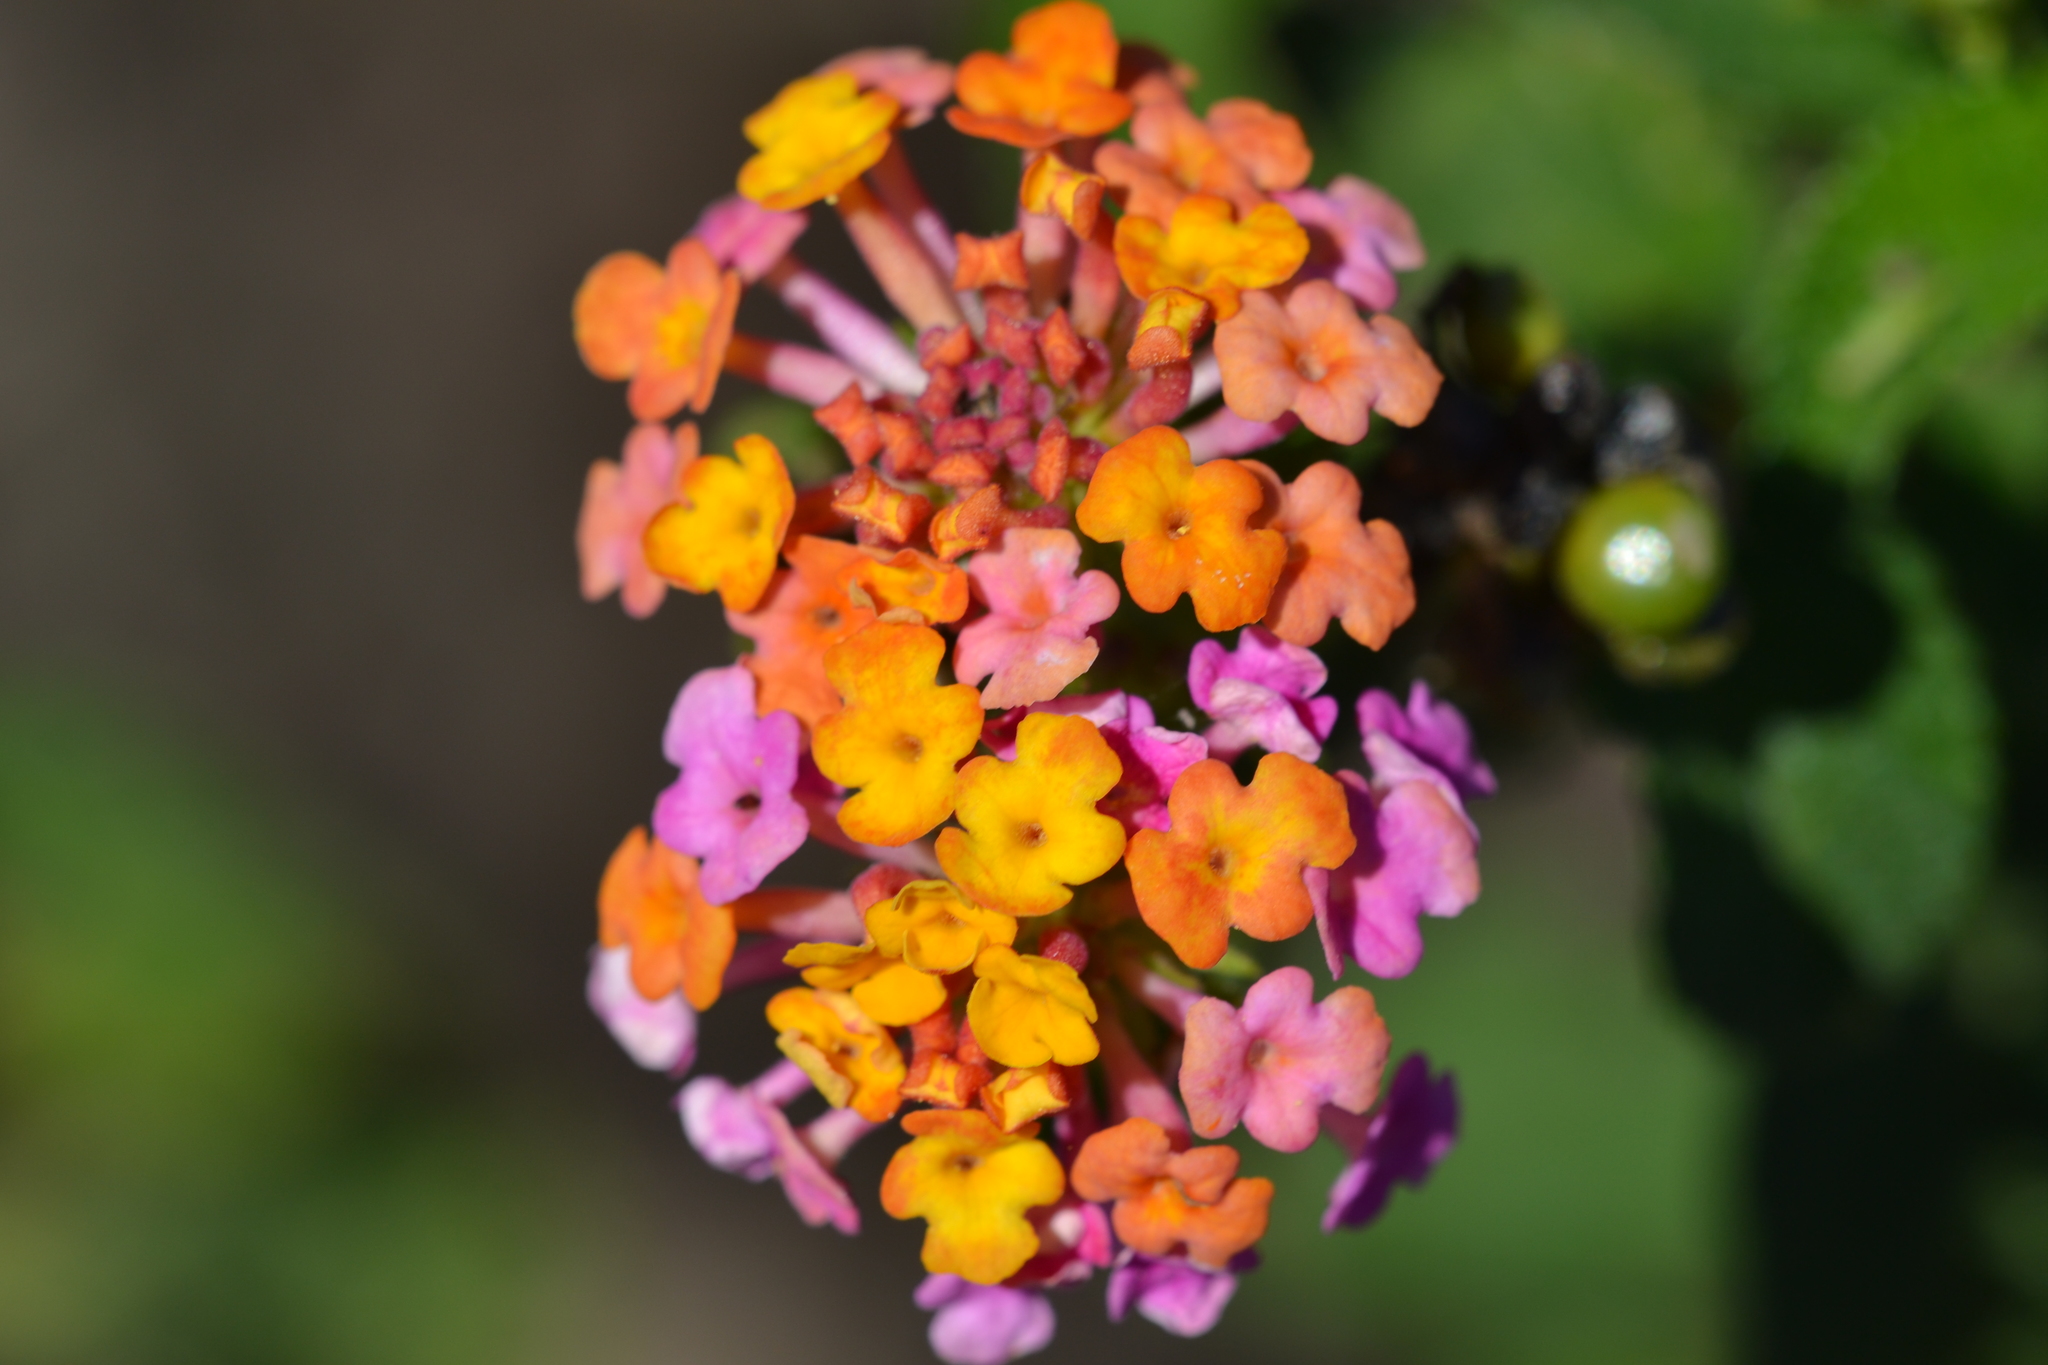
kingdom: Plantae
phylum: Tracheophyta
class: Magnoliopsida
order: Lamiales
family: Verbenaceae
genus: Lantana
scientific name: Lantana camara
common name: Lantana
